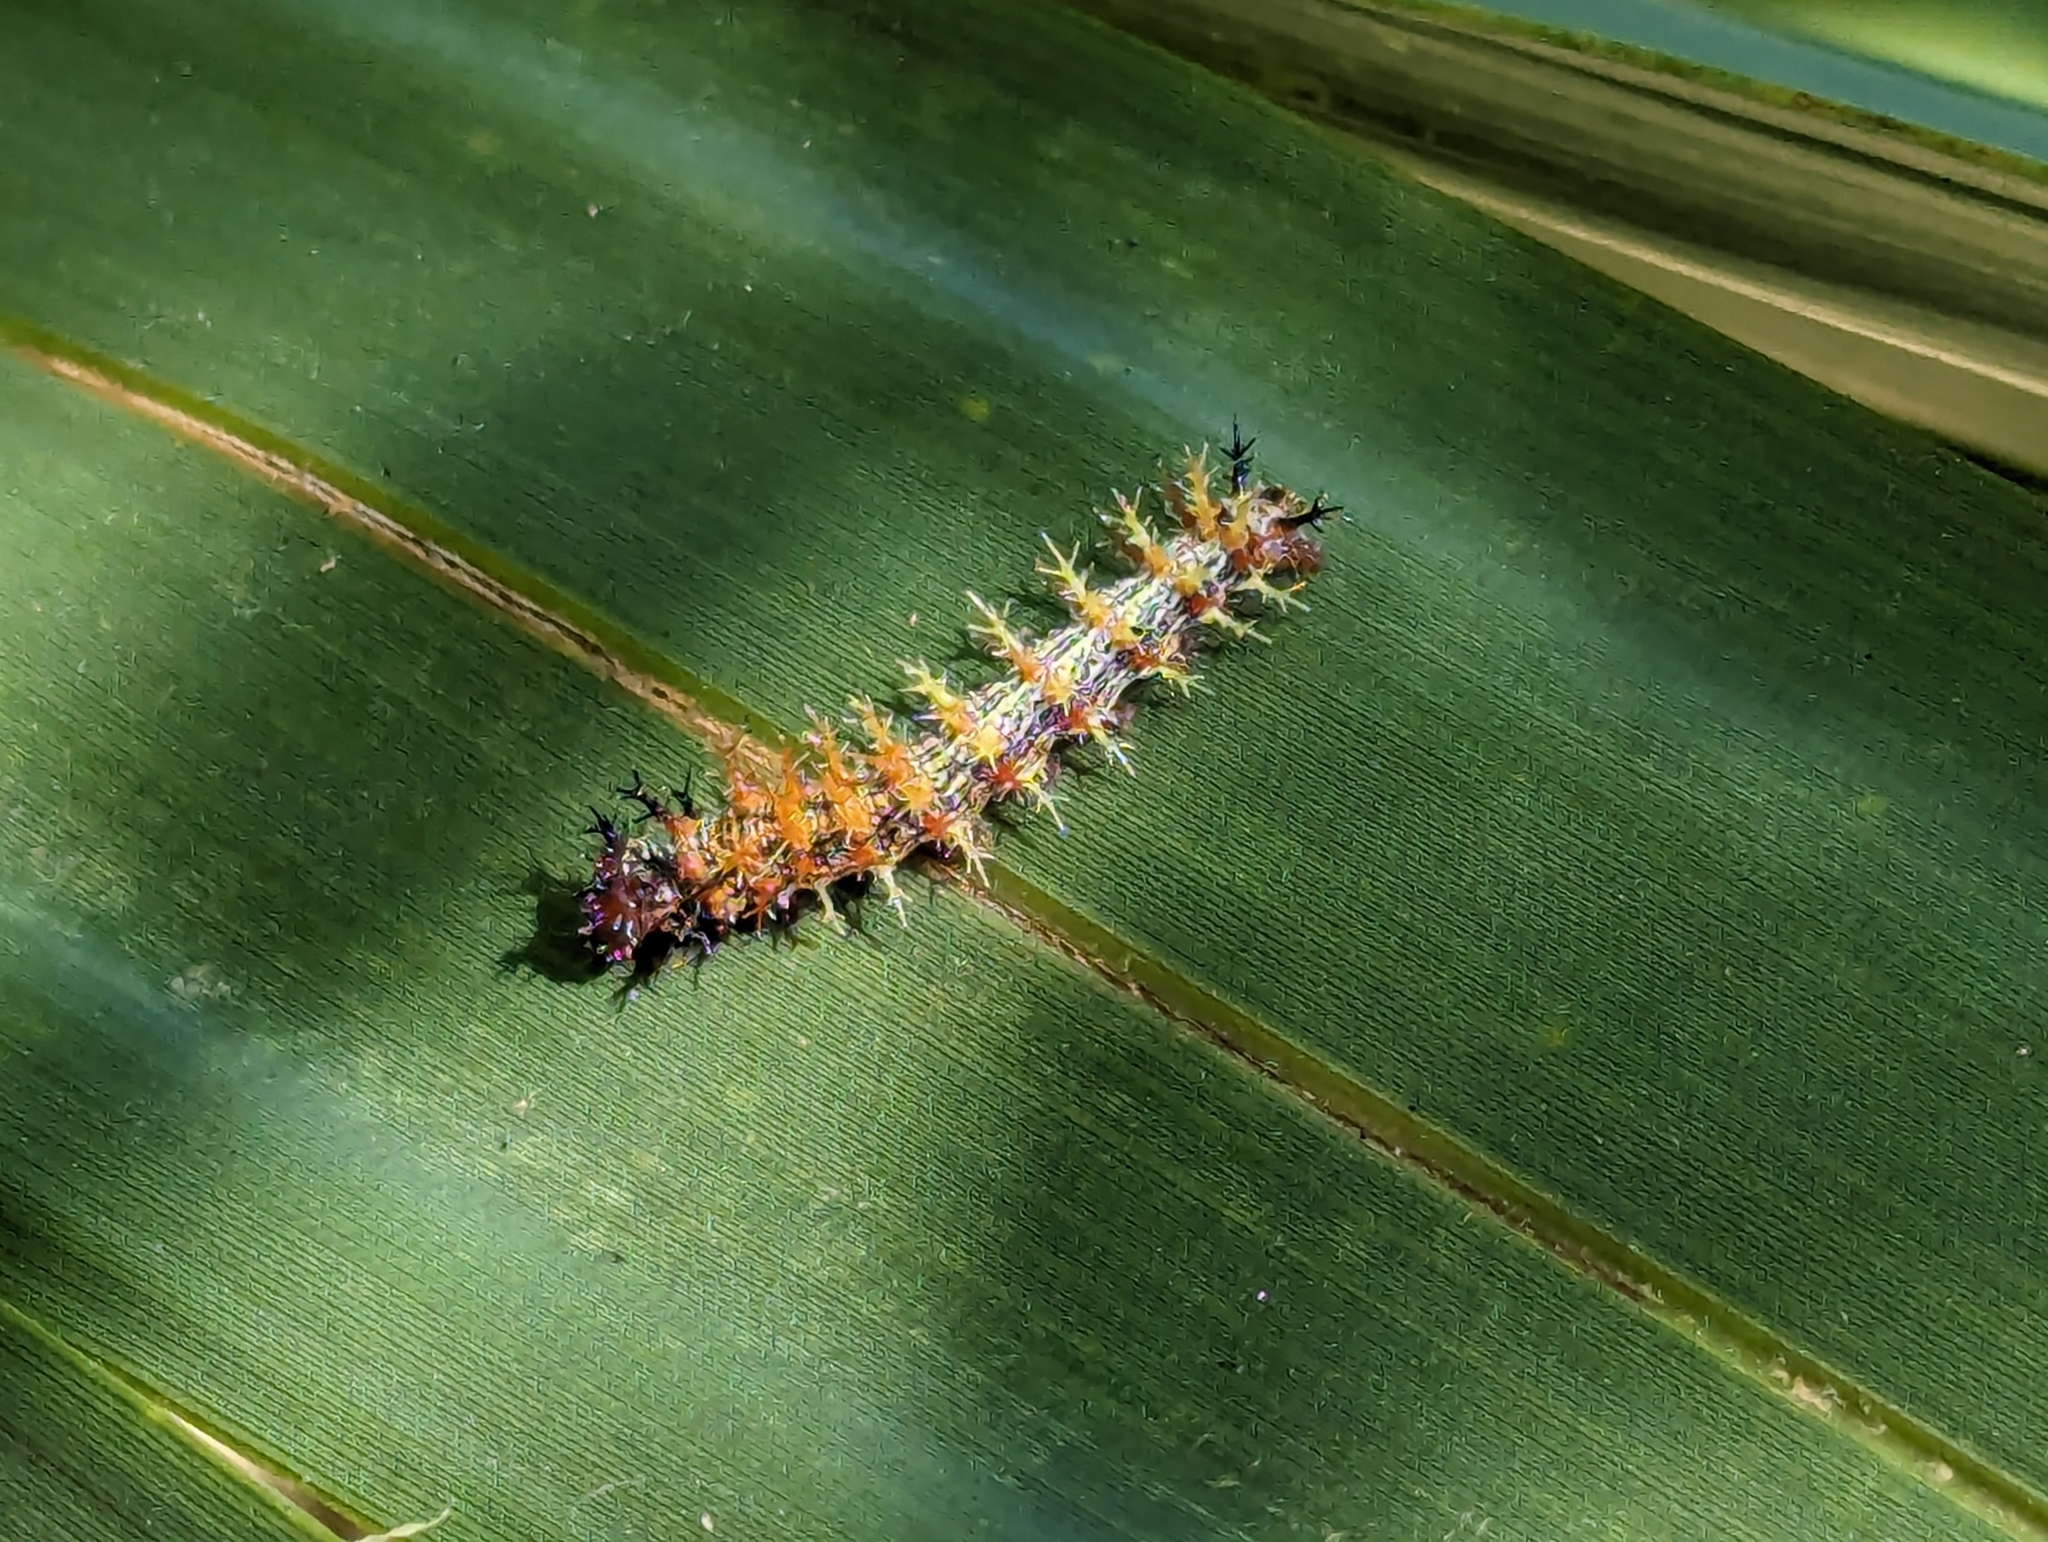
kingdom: Animalia
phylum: Arthropoda
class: Insecta
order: Lepidoptera
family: Nymphalidae
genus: Polygonia
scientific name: Polygonia interrogationis
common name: Question mark
